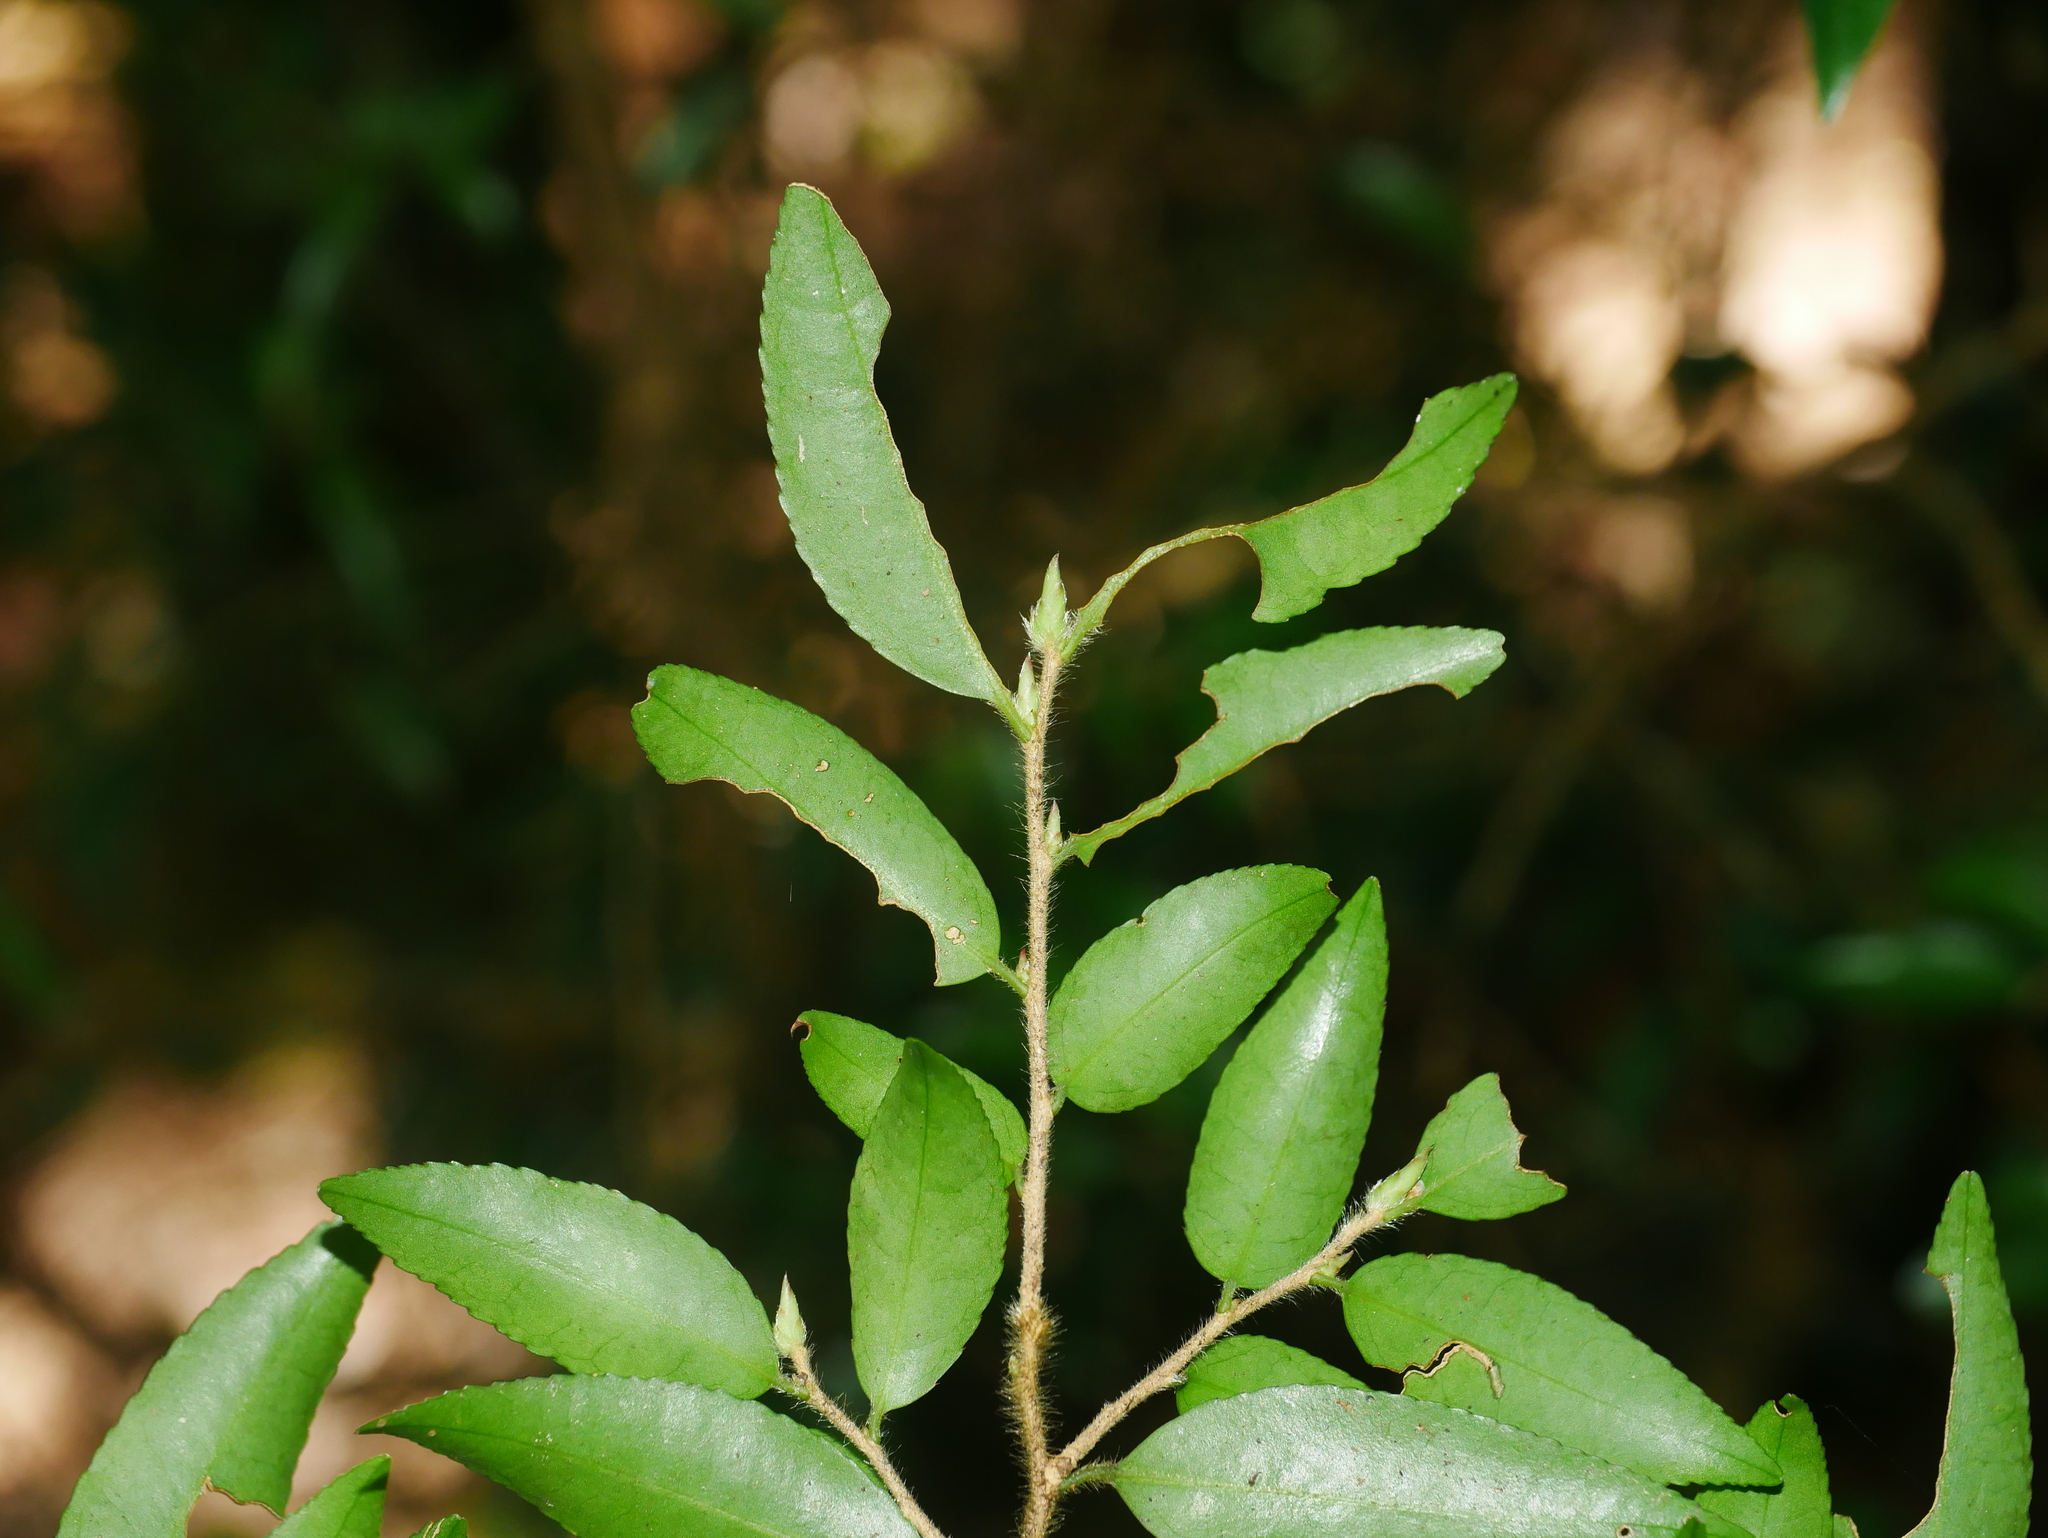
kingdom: Plantae
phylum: Tracheophyta
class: Magnoliopsida
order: Ericales
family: Theaceae
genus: Camellia
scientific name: Camellia lutchuensis
